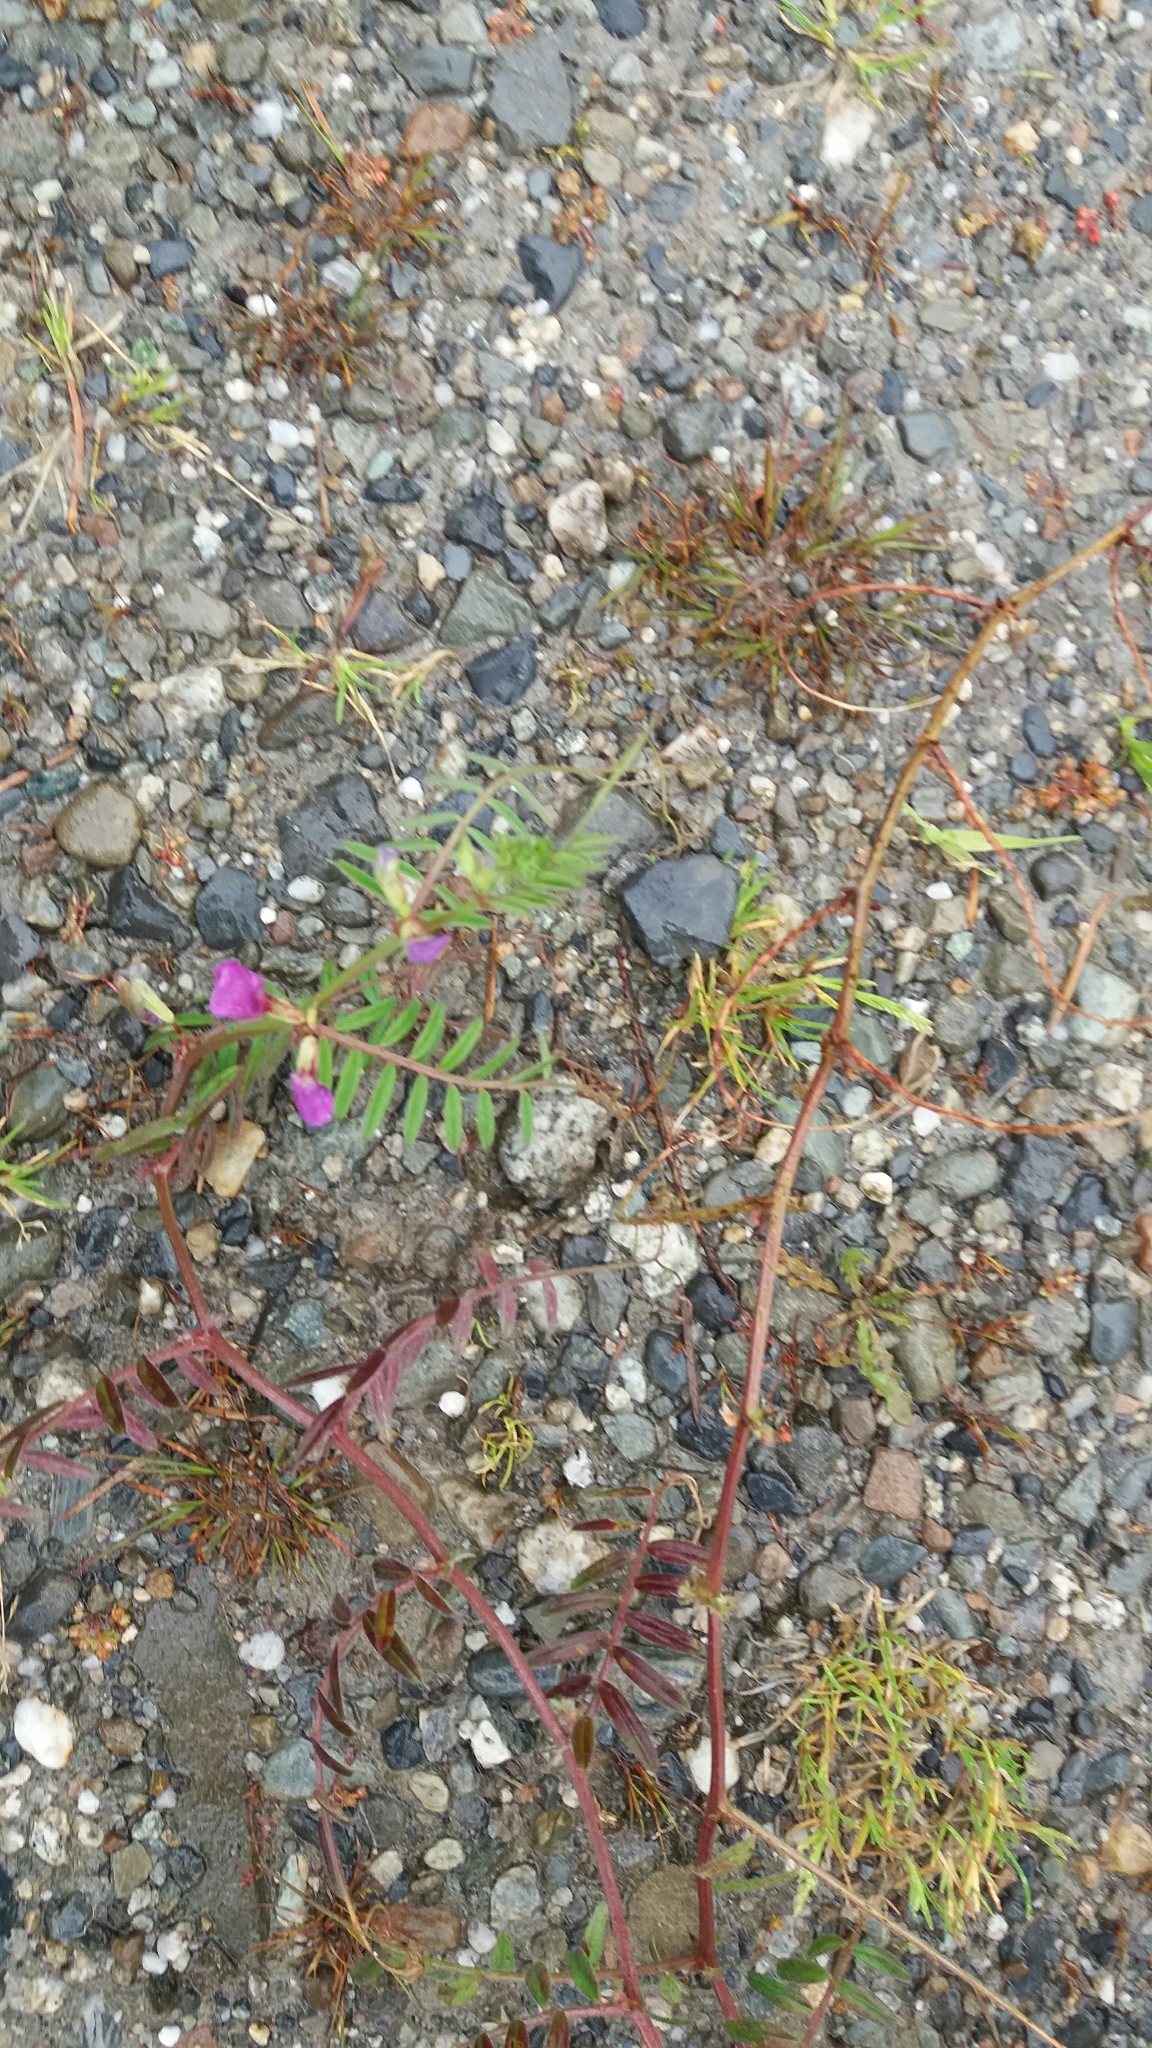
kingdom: Plantae
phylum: Tracheophyta
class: Magnoliopsida
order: Fabales
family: Fabaceae
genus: Vicia
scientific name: Vicia sativa
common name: Garden vetch
